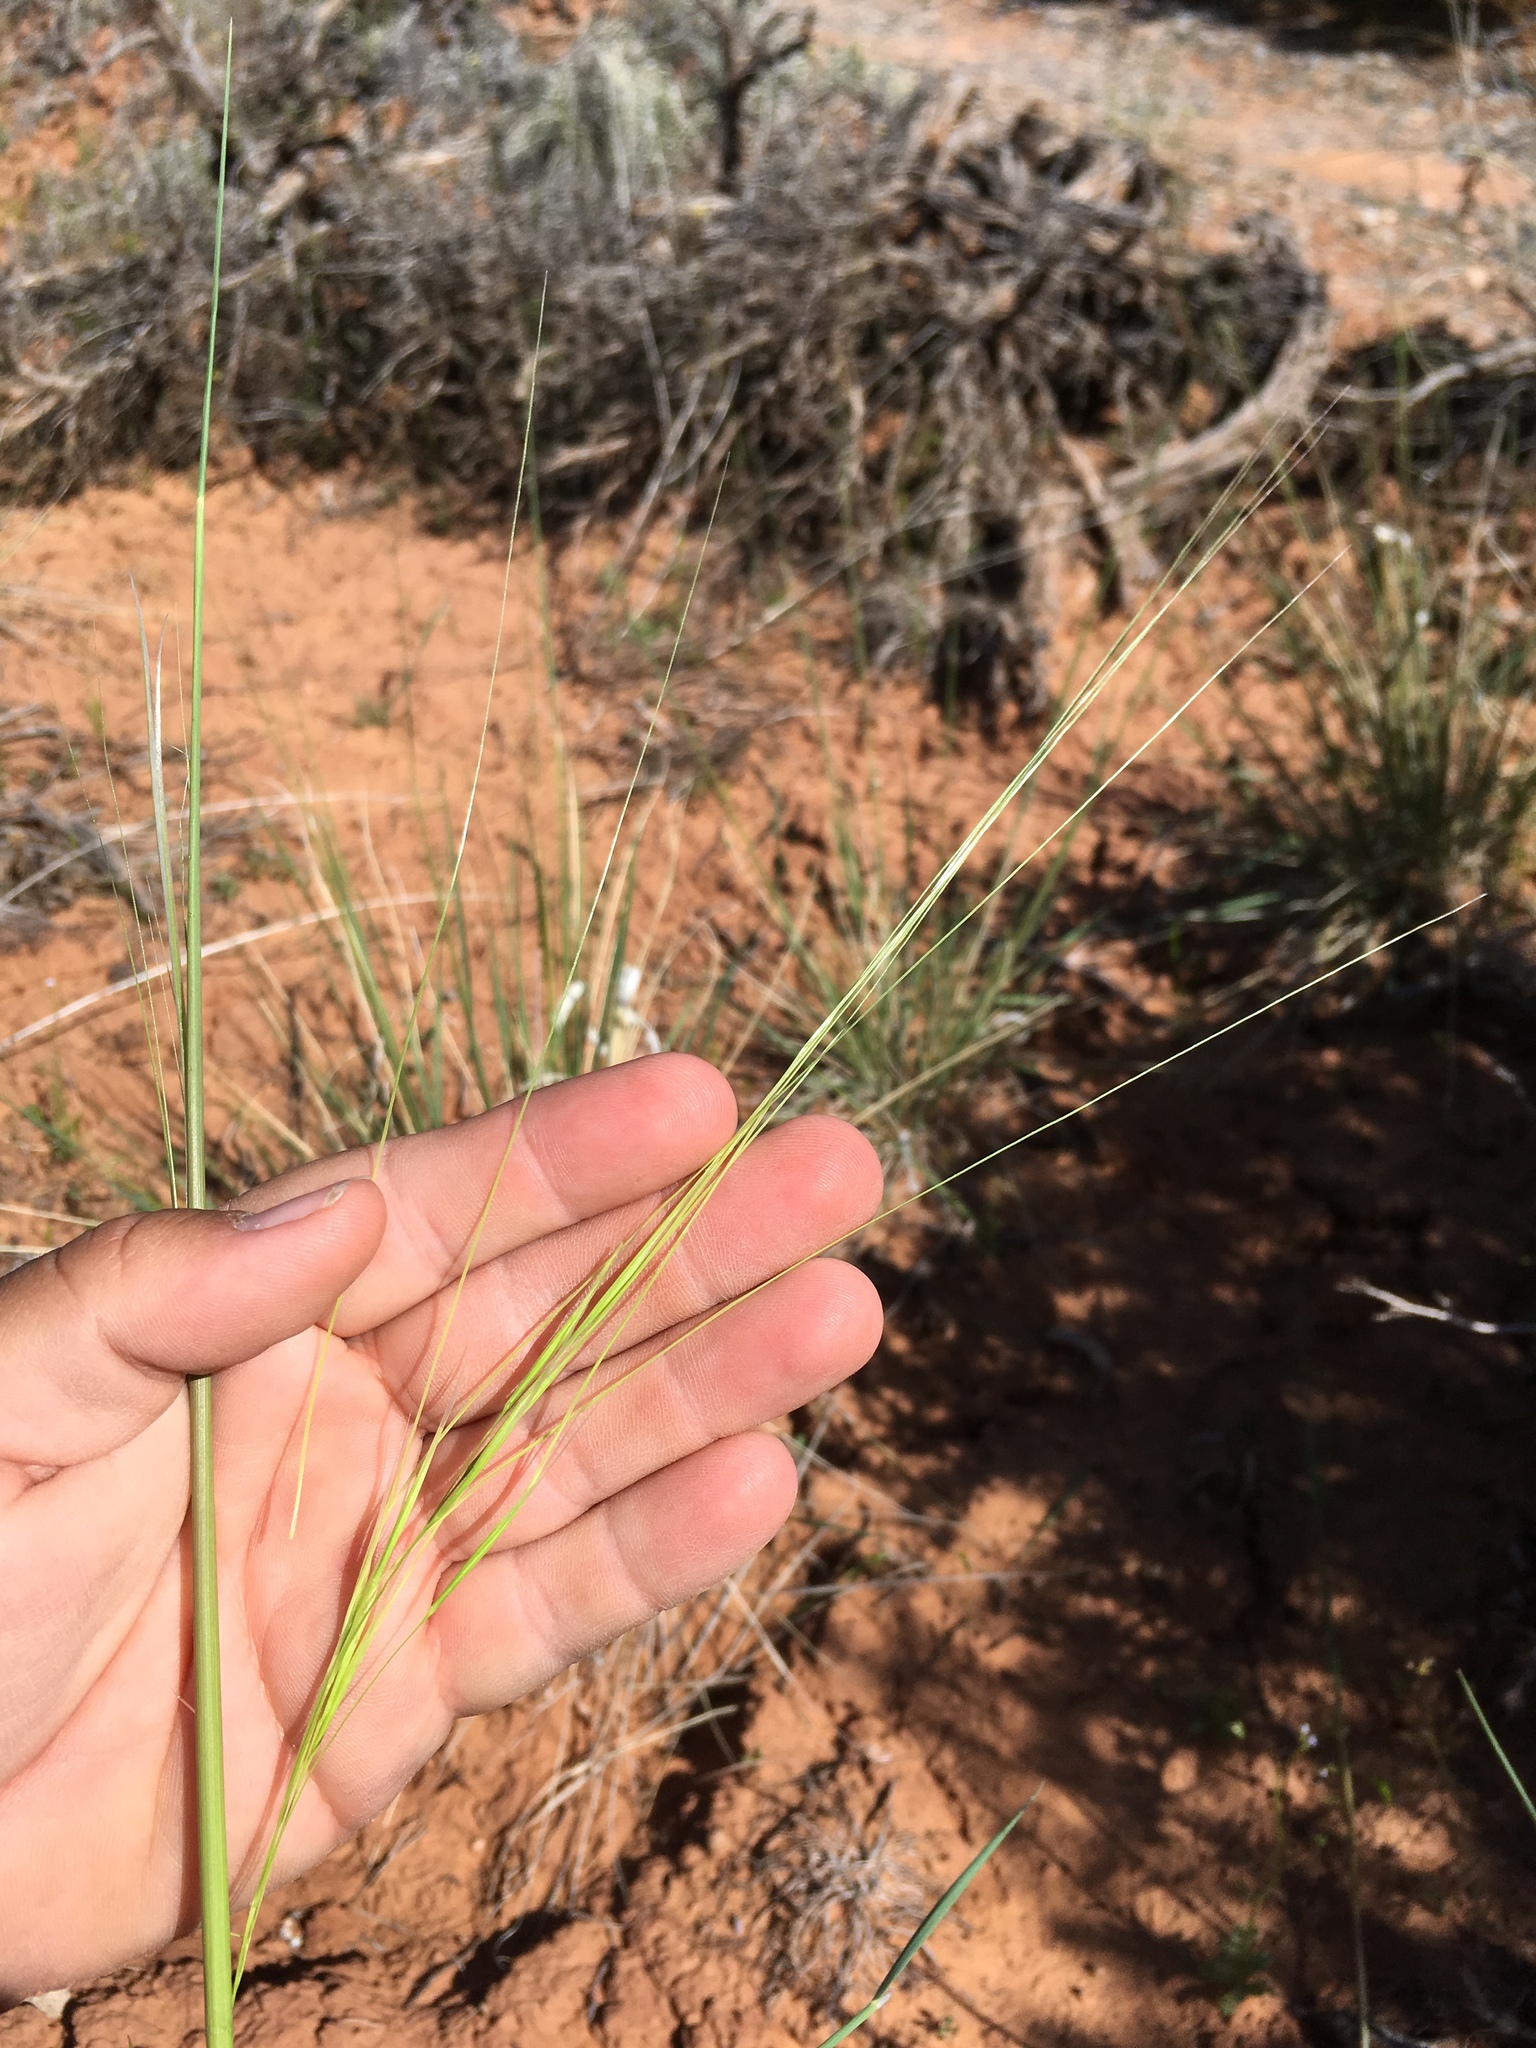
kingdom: Plantae
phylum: Tracheophyta
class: Liliopsida
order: Poales
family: Poaceae
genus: Hesperostipa
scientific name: Hesperostipa comata
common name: Needle-and-thread grass
